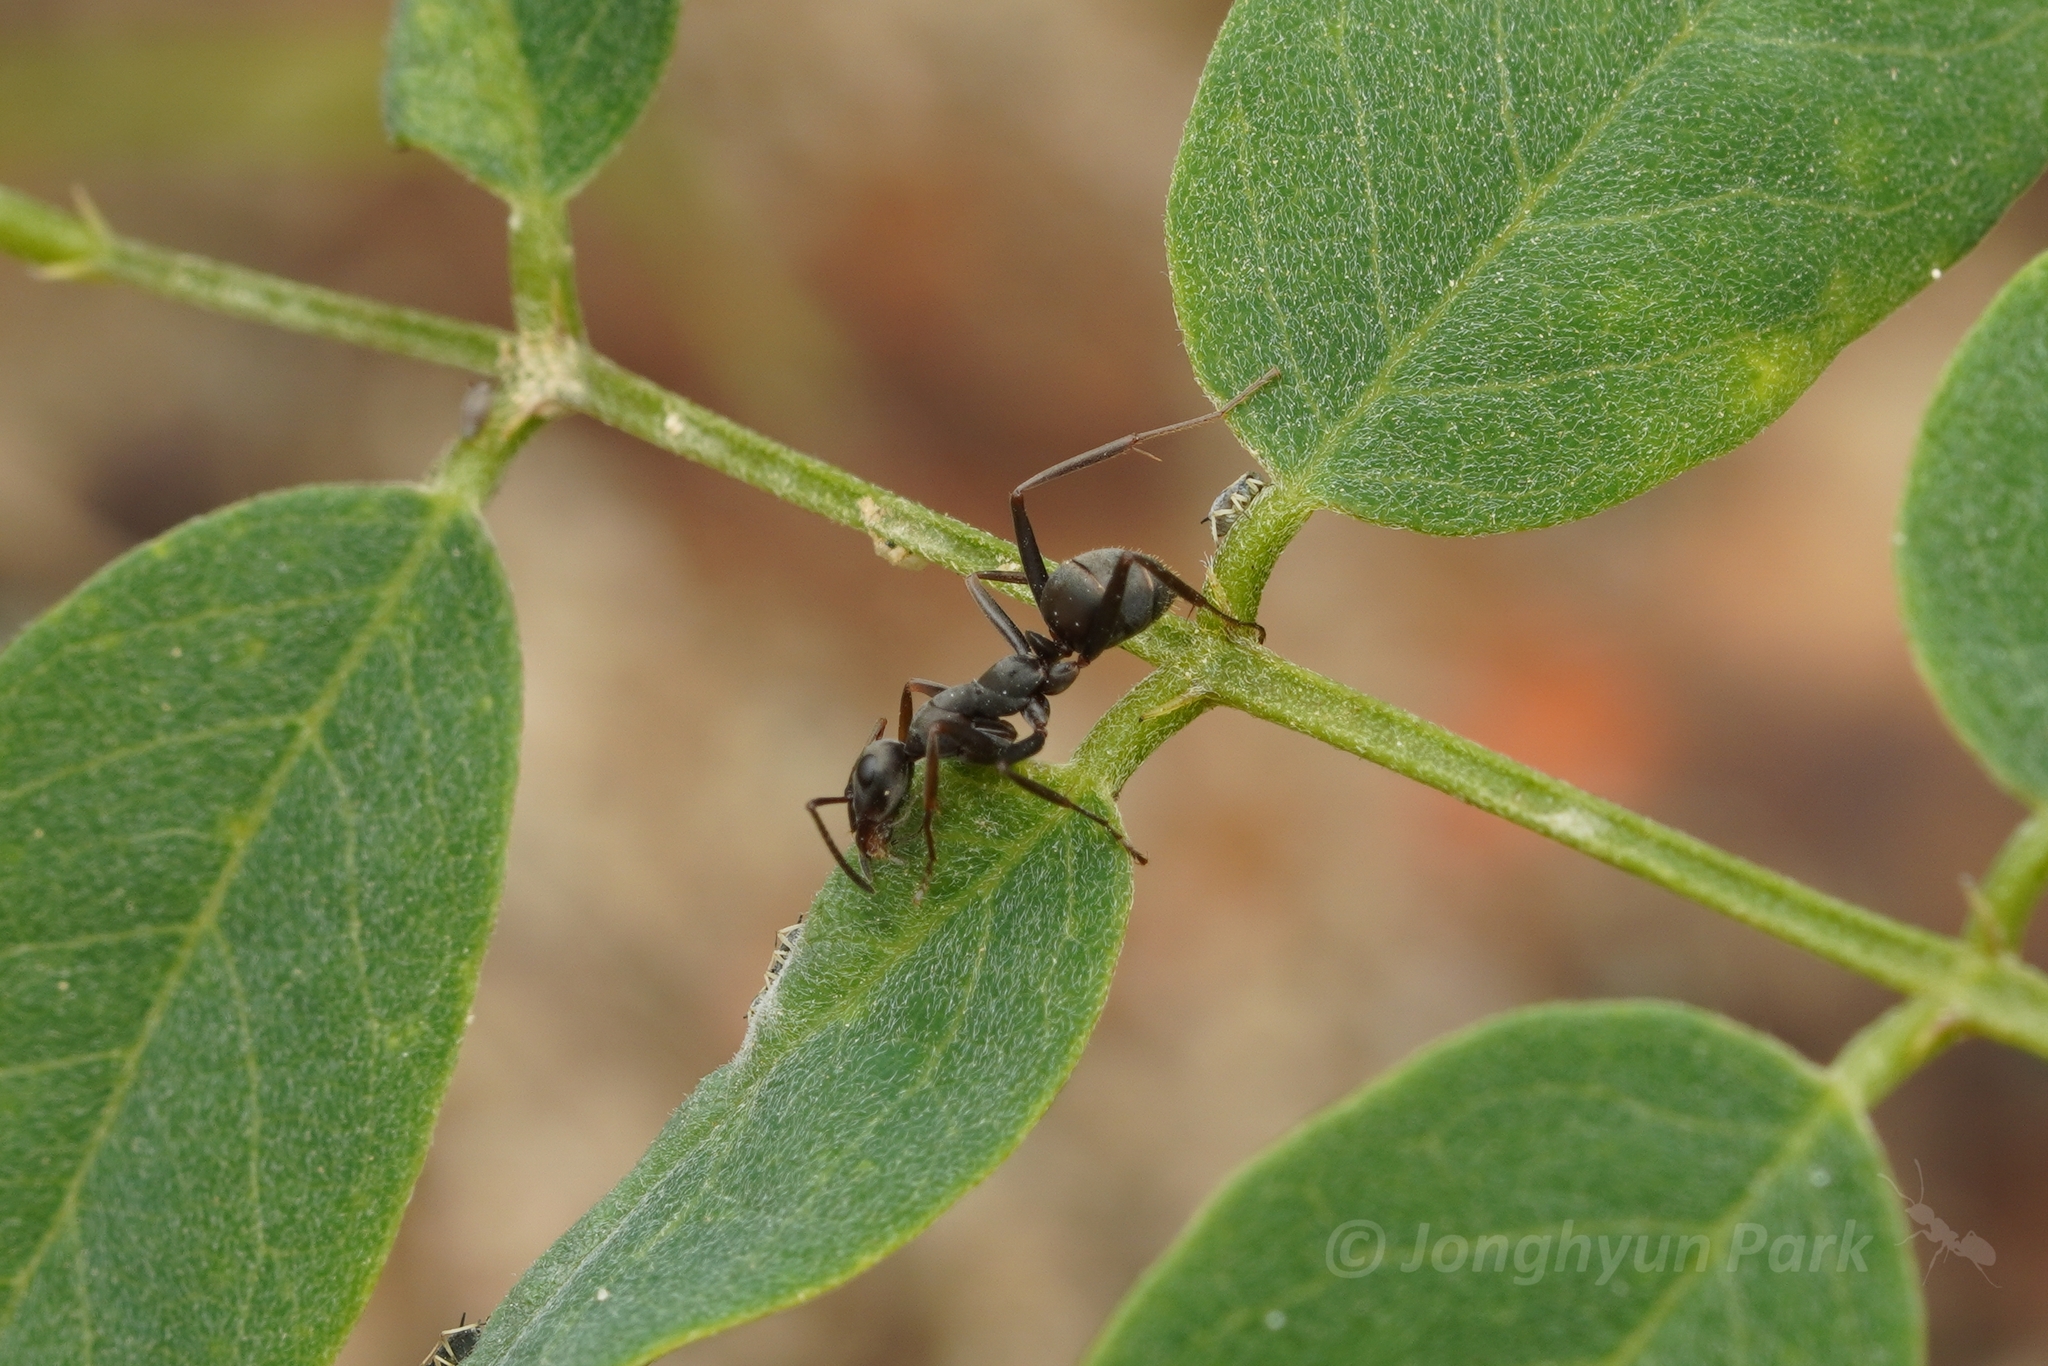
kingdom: Animalia
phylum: Arthropoda
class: Insecta
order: Hymenoptera
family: Formicidae
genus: Formica
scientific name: Formica japonica
